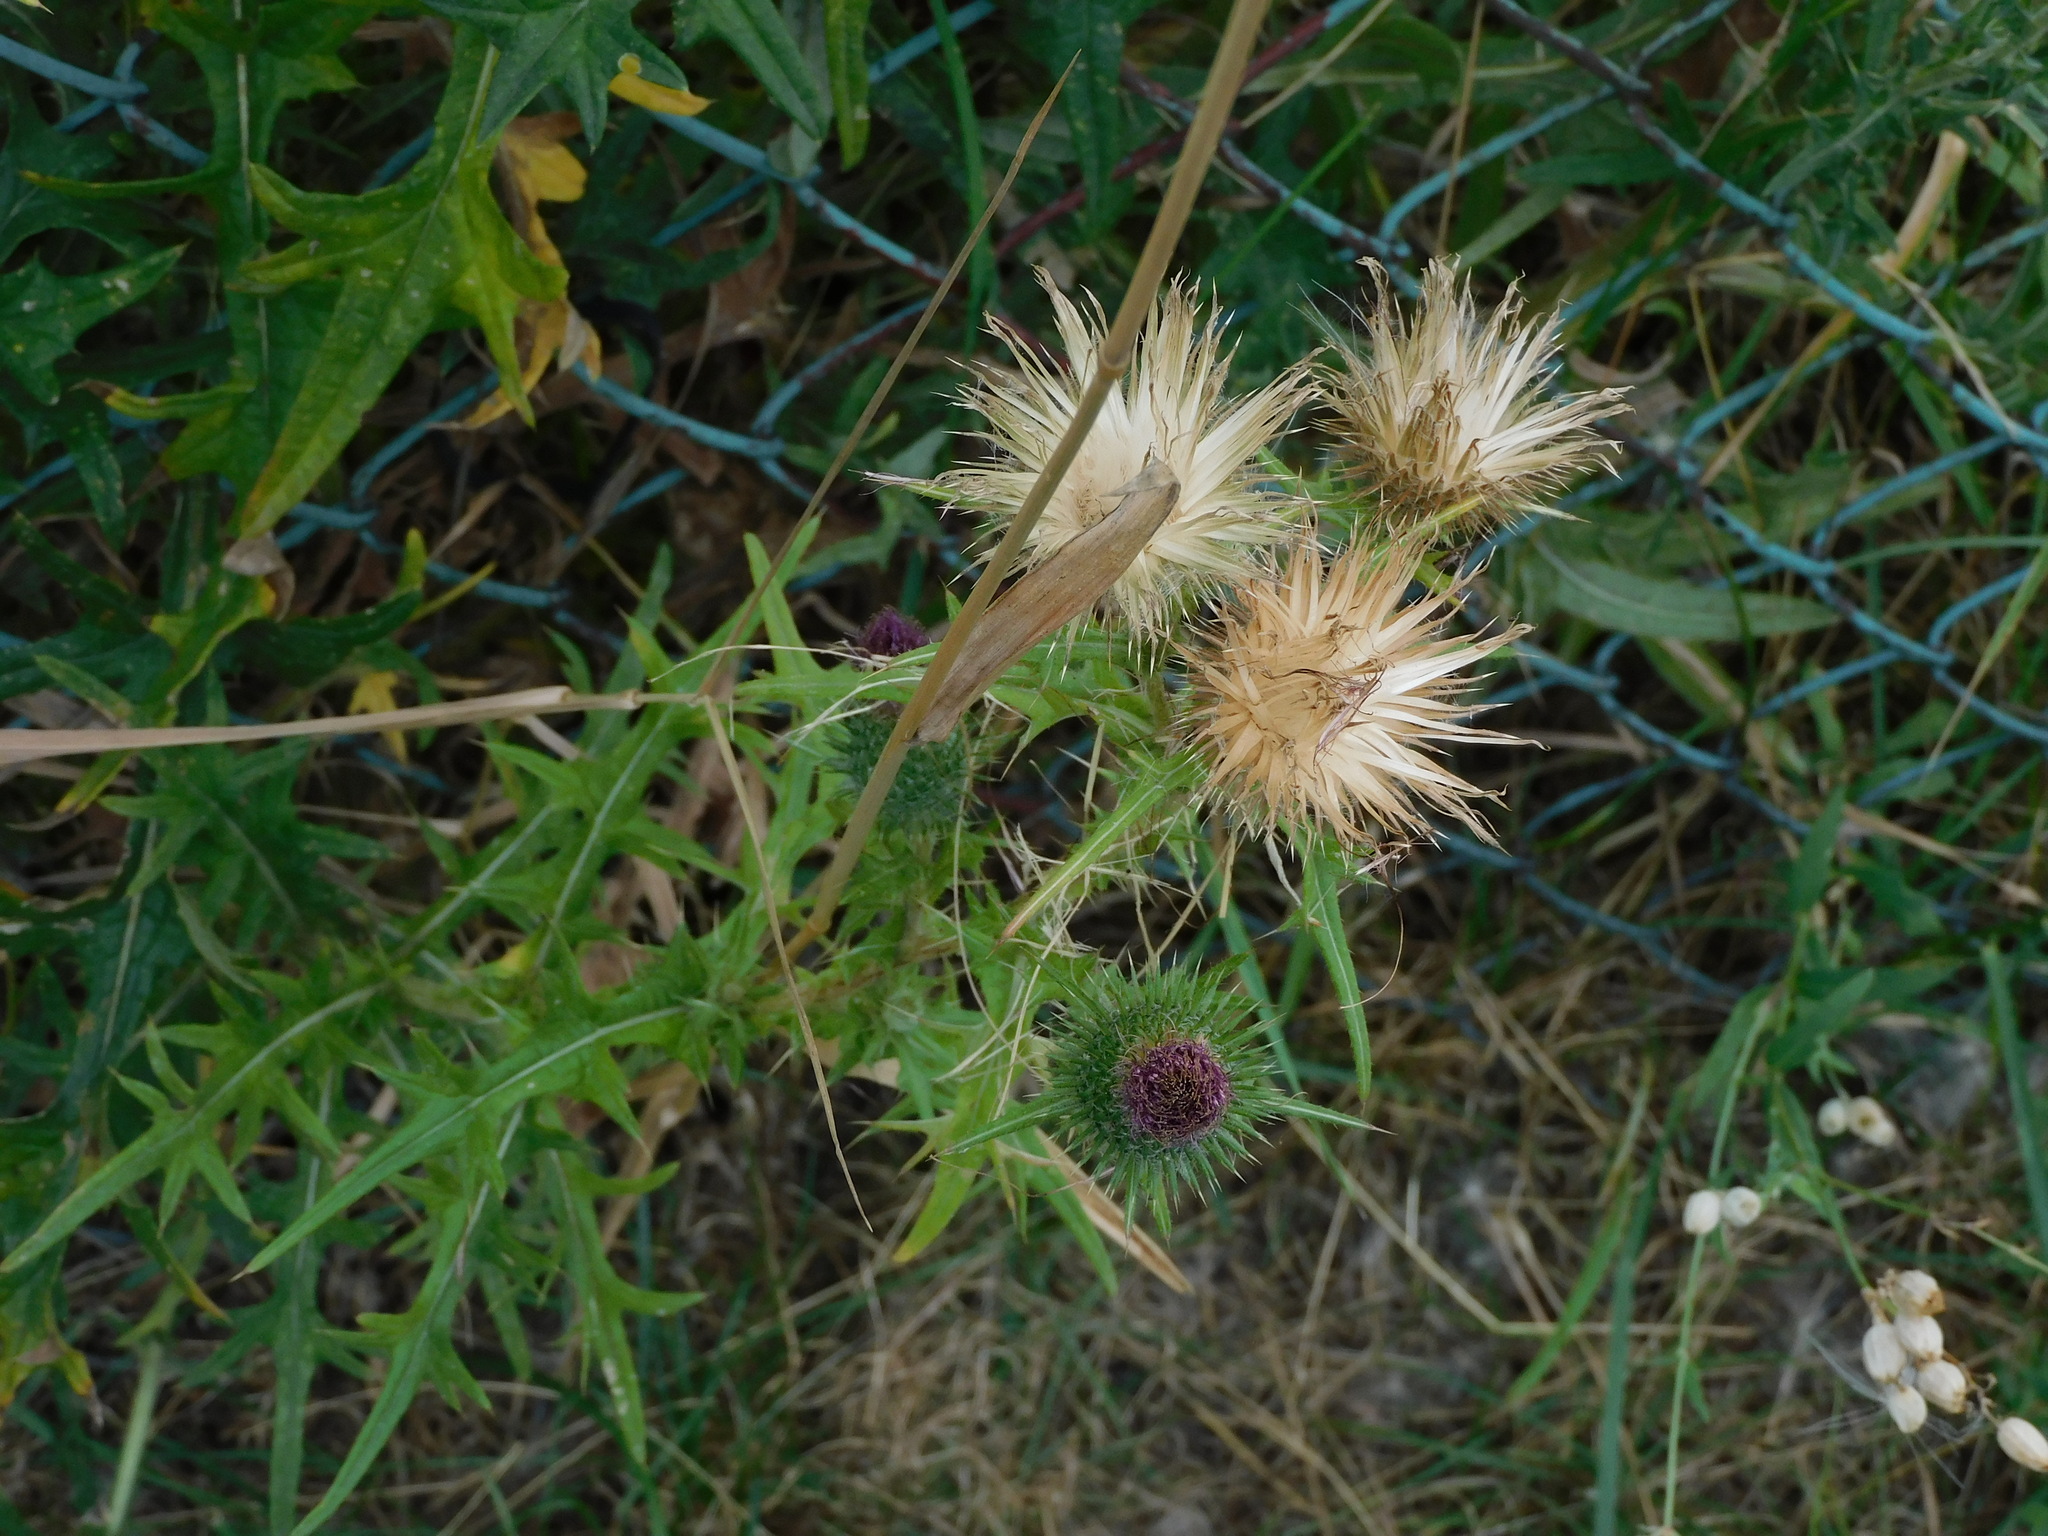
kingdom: Plantae
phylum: Tracheophyta
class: Magnoliopsida
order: Asterales
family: Asteraceae
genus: Cirsium
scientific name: Cirsium vulgare
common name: Bull thistle
